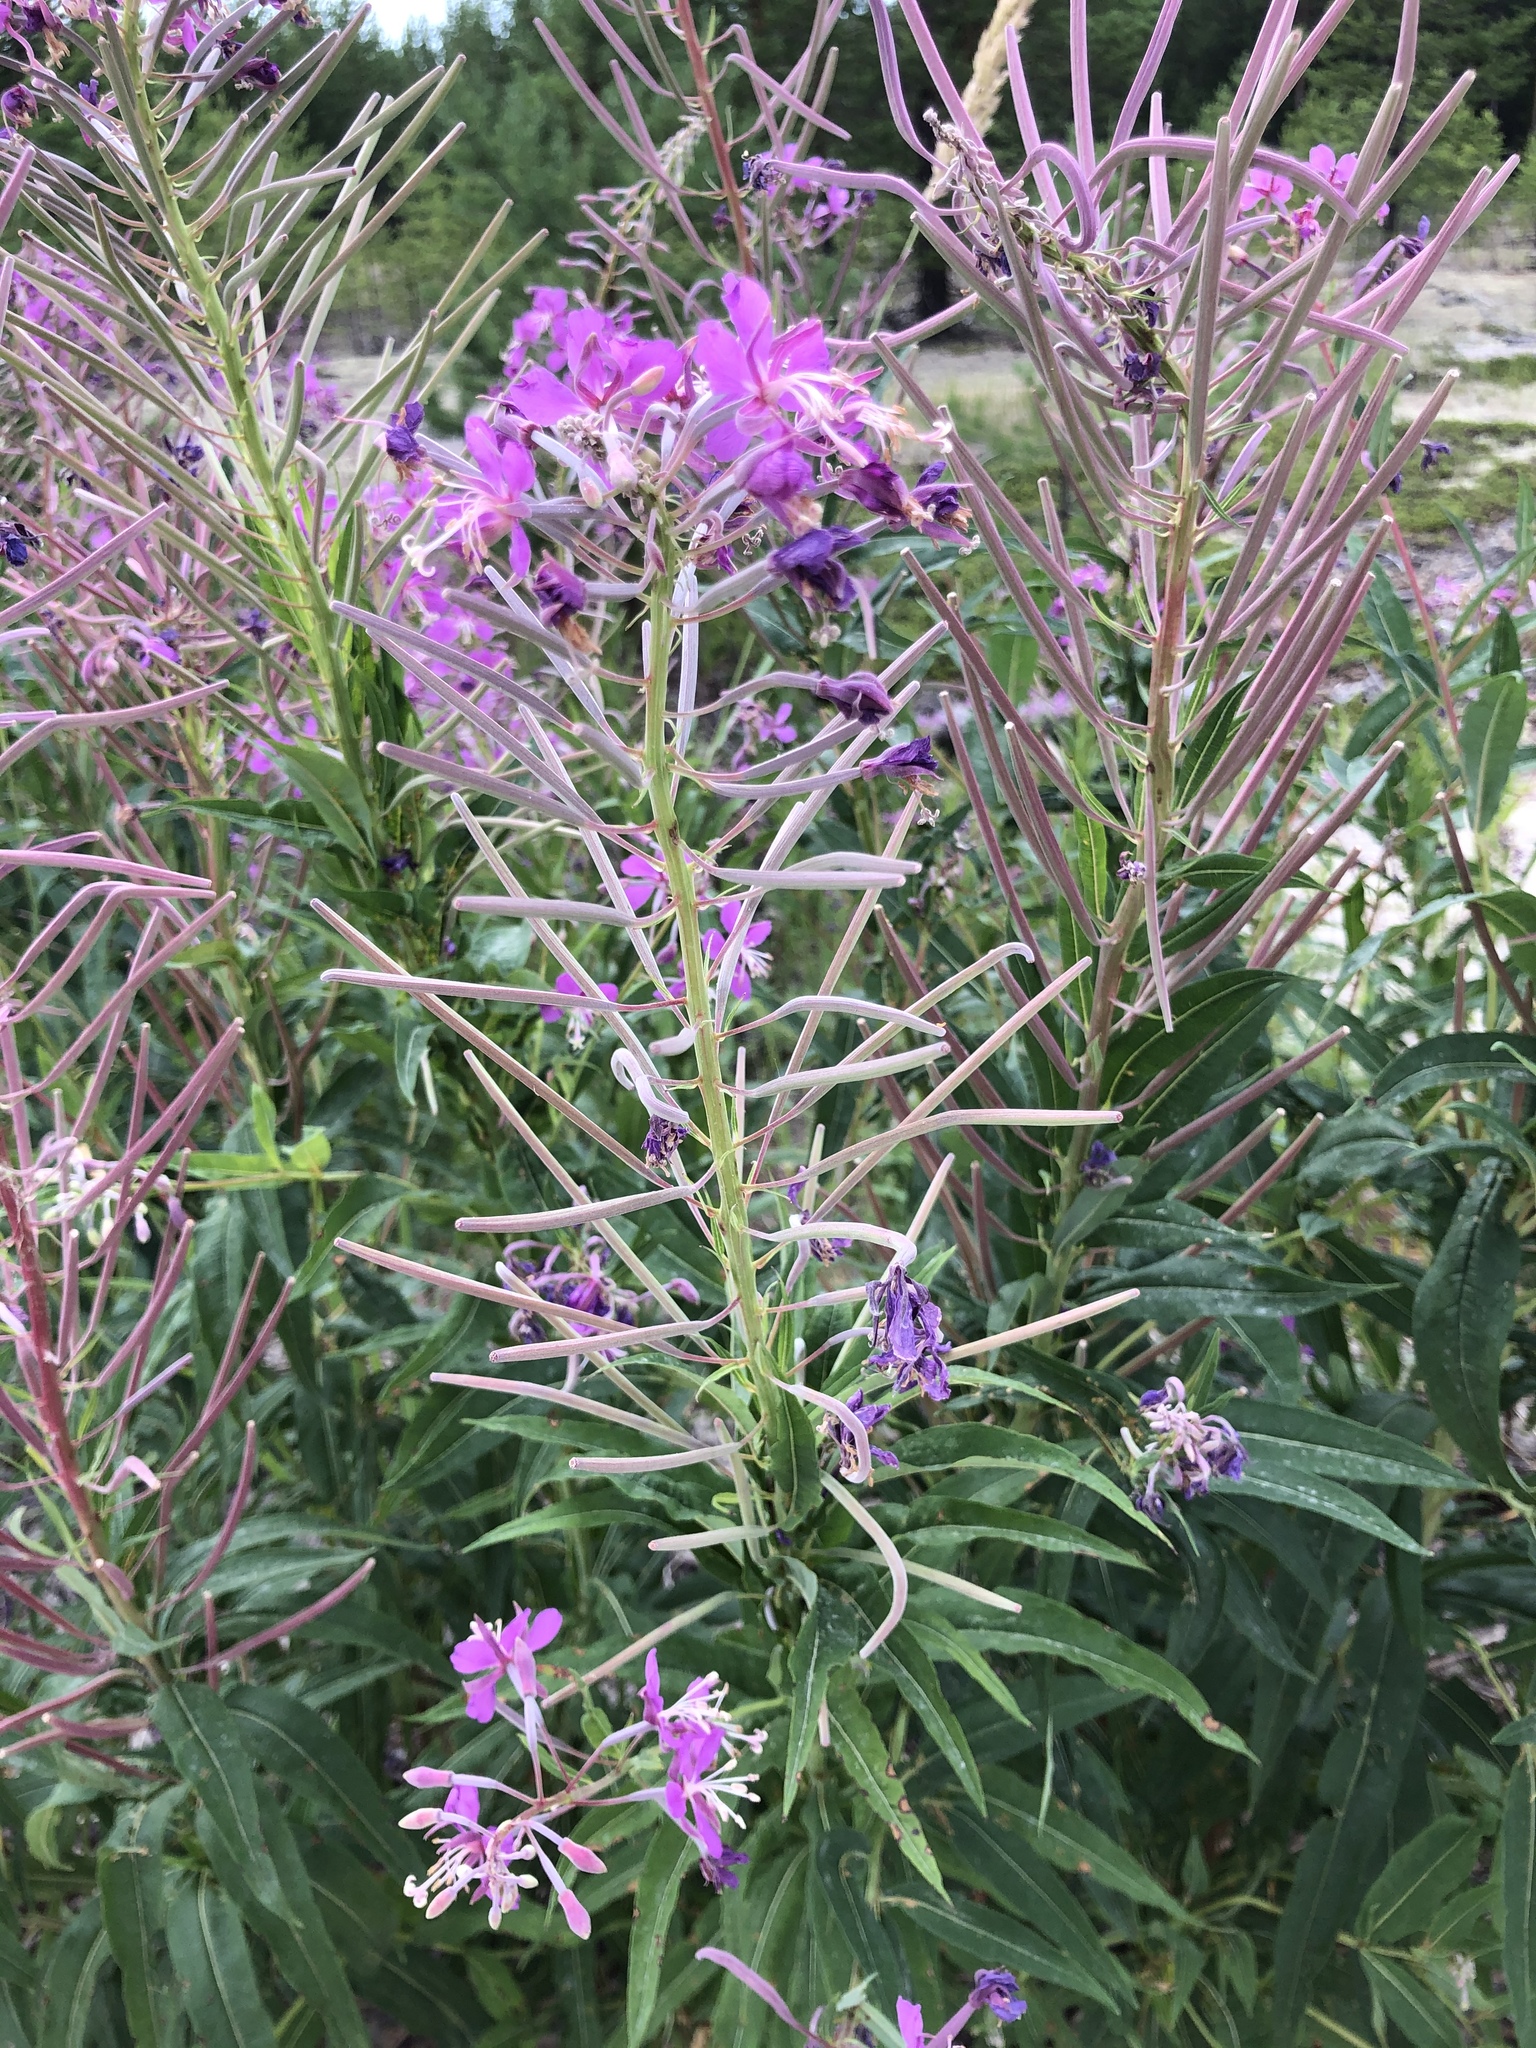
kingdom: Plantae
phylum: Tracheophyta
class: Magnoliopsida
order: Myrtales
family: Onagraceae
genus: Chamaenerion
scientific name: Chamaenerion angustifolium
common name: Fireweed
